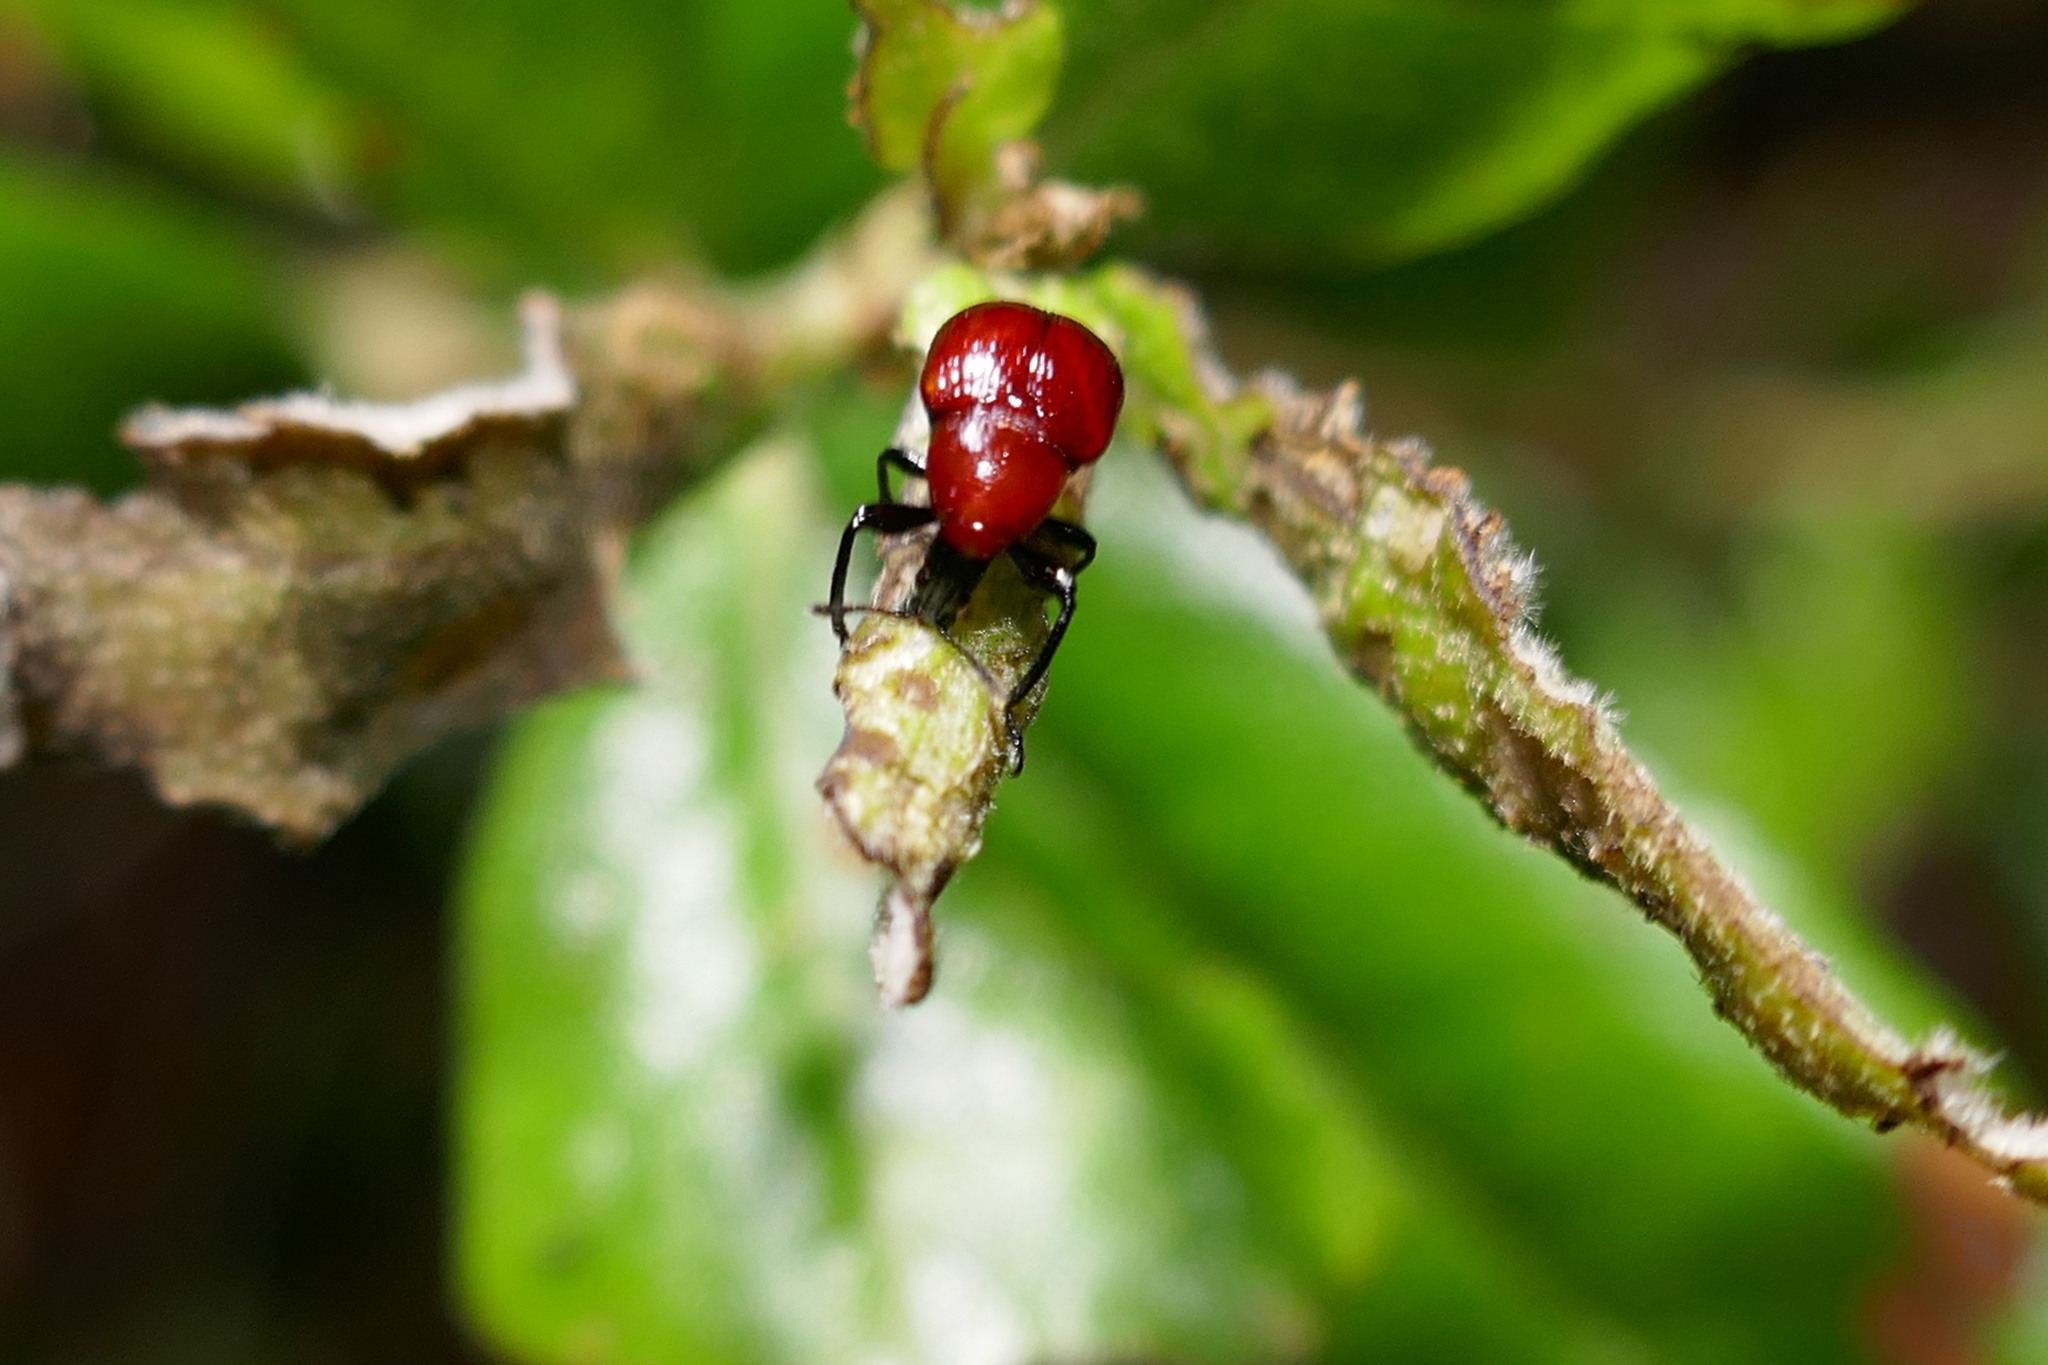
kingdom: Animalia
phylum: Arthropoda
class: Insecta
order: Coleoptera
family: Attelabidae
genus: Homoeolabus
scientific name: Homoeolabus analis
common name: Oak leaf rolling weevil
